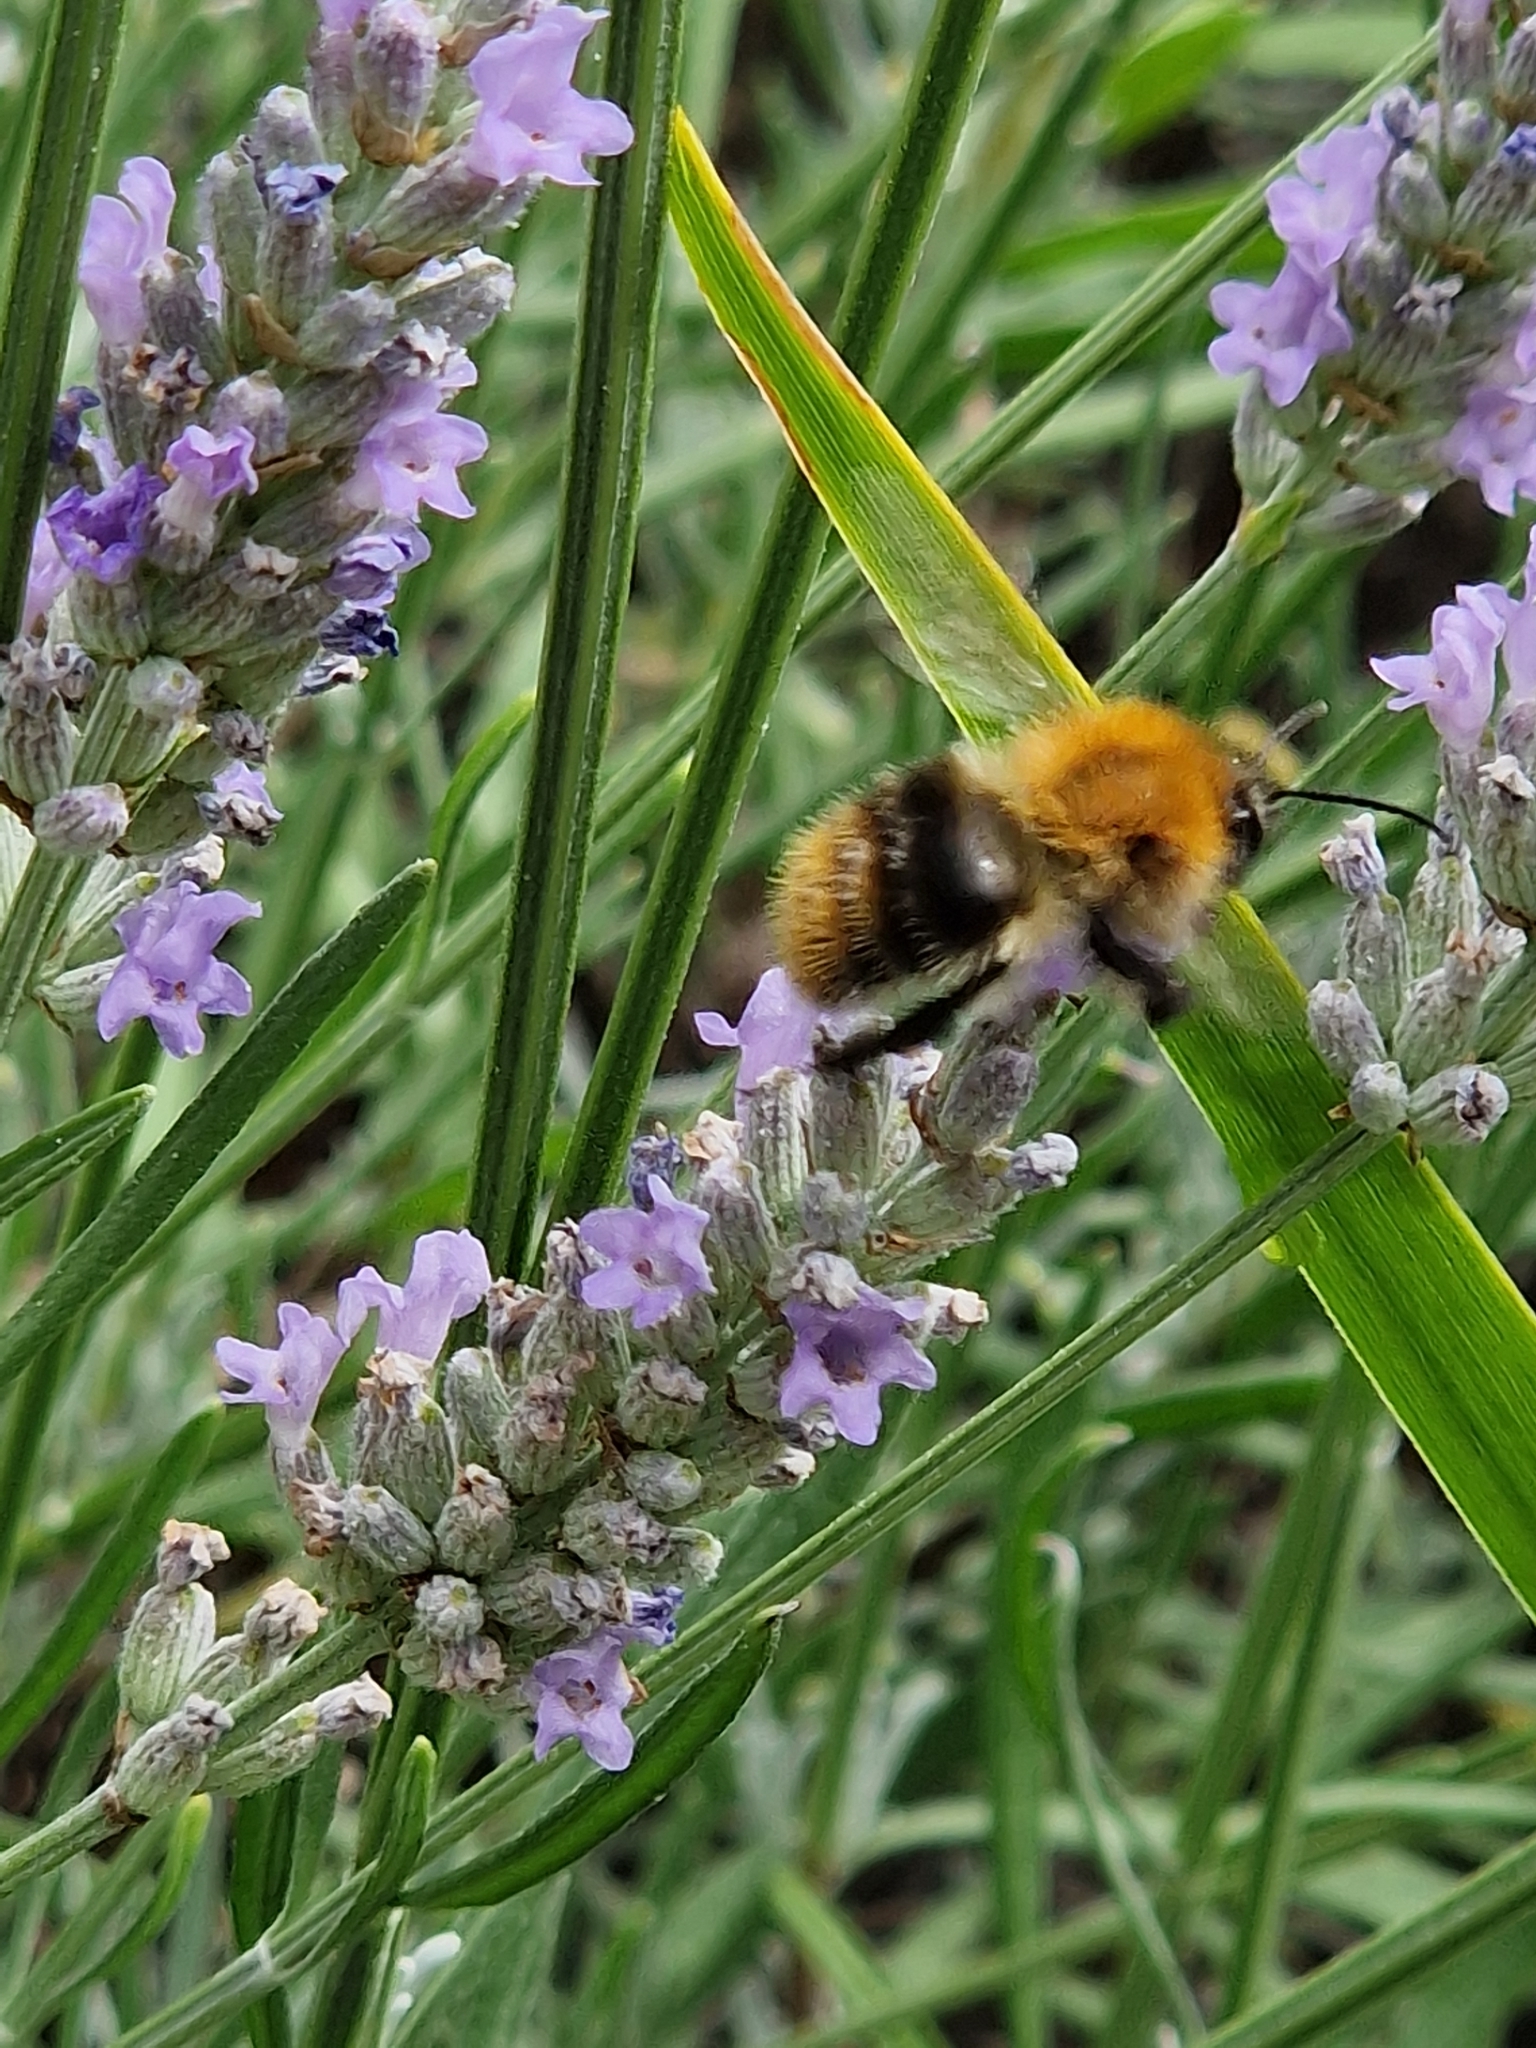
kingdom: Animalia
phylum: Arthropoda
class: Insecta
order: Hymenoptera
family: Apidae
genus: Bombus
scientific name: Bombus pascuorum
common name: Common carder bee
